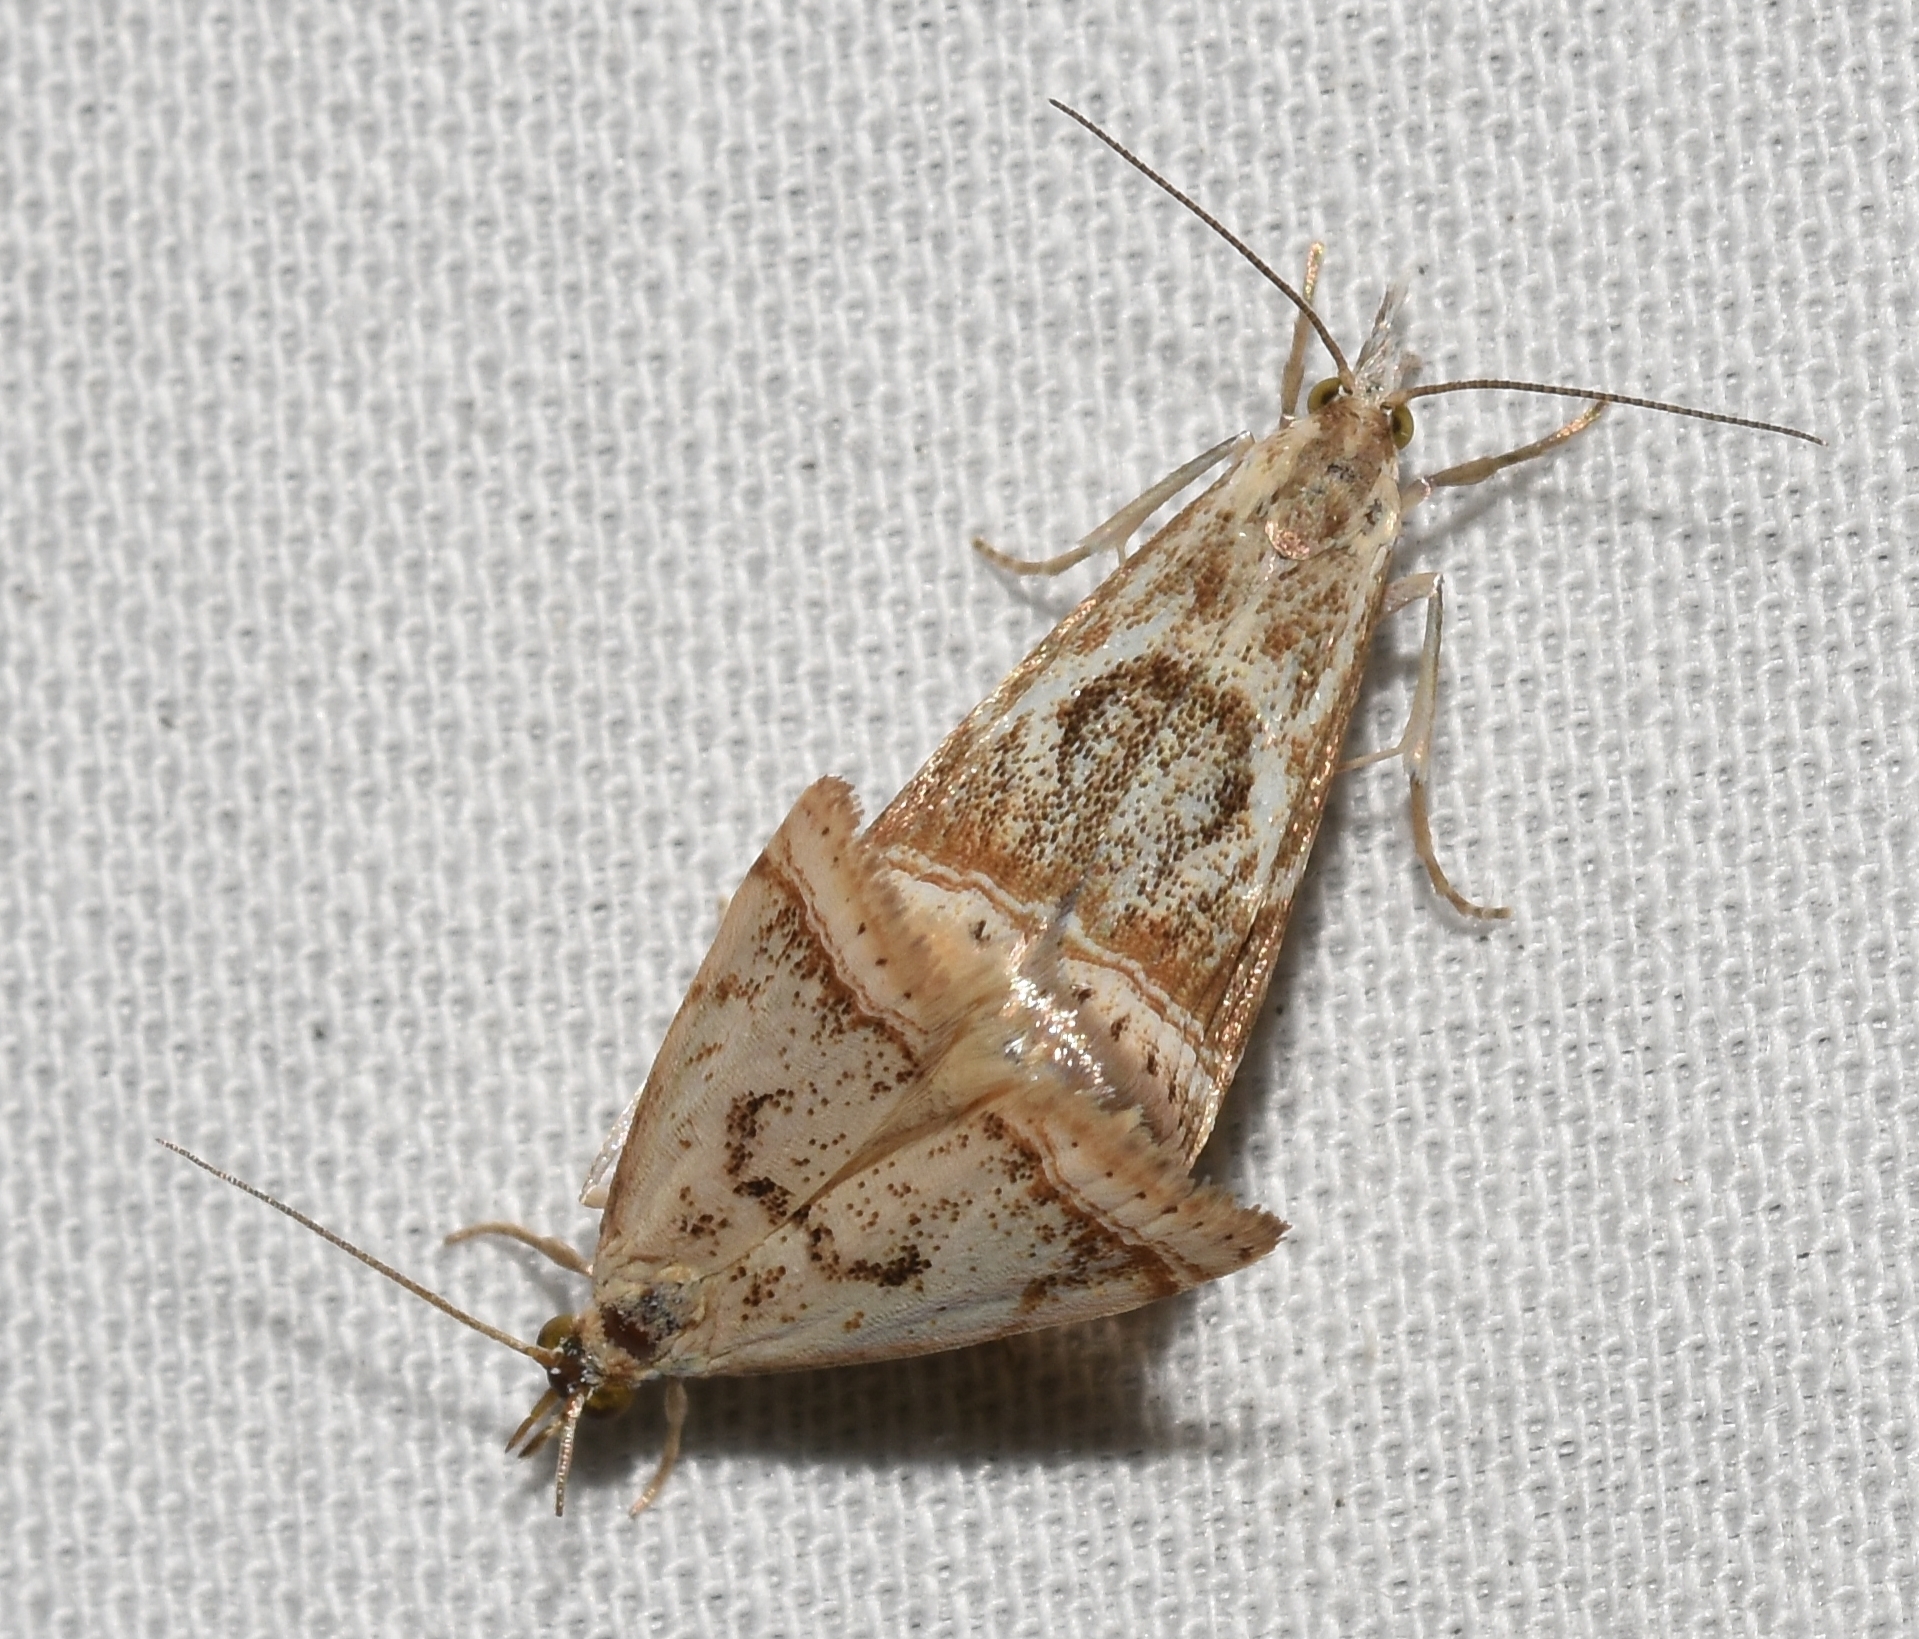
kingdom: Animalia
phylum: Arthropoda
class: Insecta
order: Lepidoptera
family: Crambidae
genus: Microcrambus
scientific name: Microcrambus elegans
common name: Elegant grass-veneer
